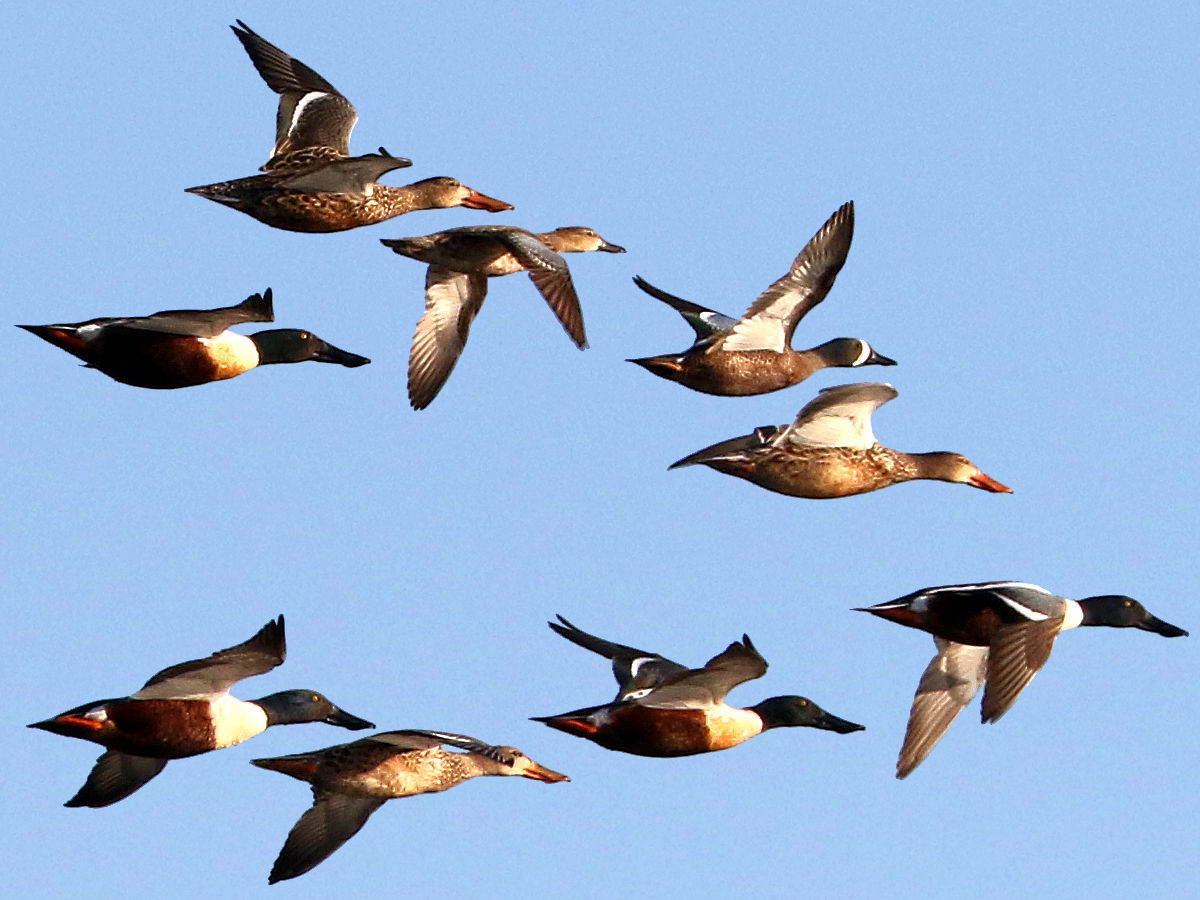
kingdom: Animalia
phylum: Chordata
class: Aves
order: Anseriformes
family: Anatidae
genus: Spatula
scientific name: Spatula clypeata
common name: Northern shoveler
